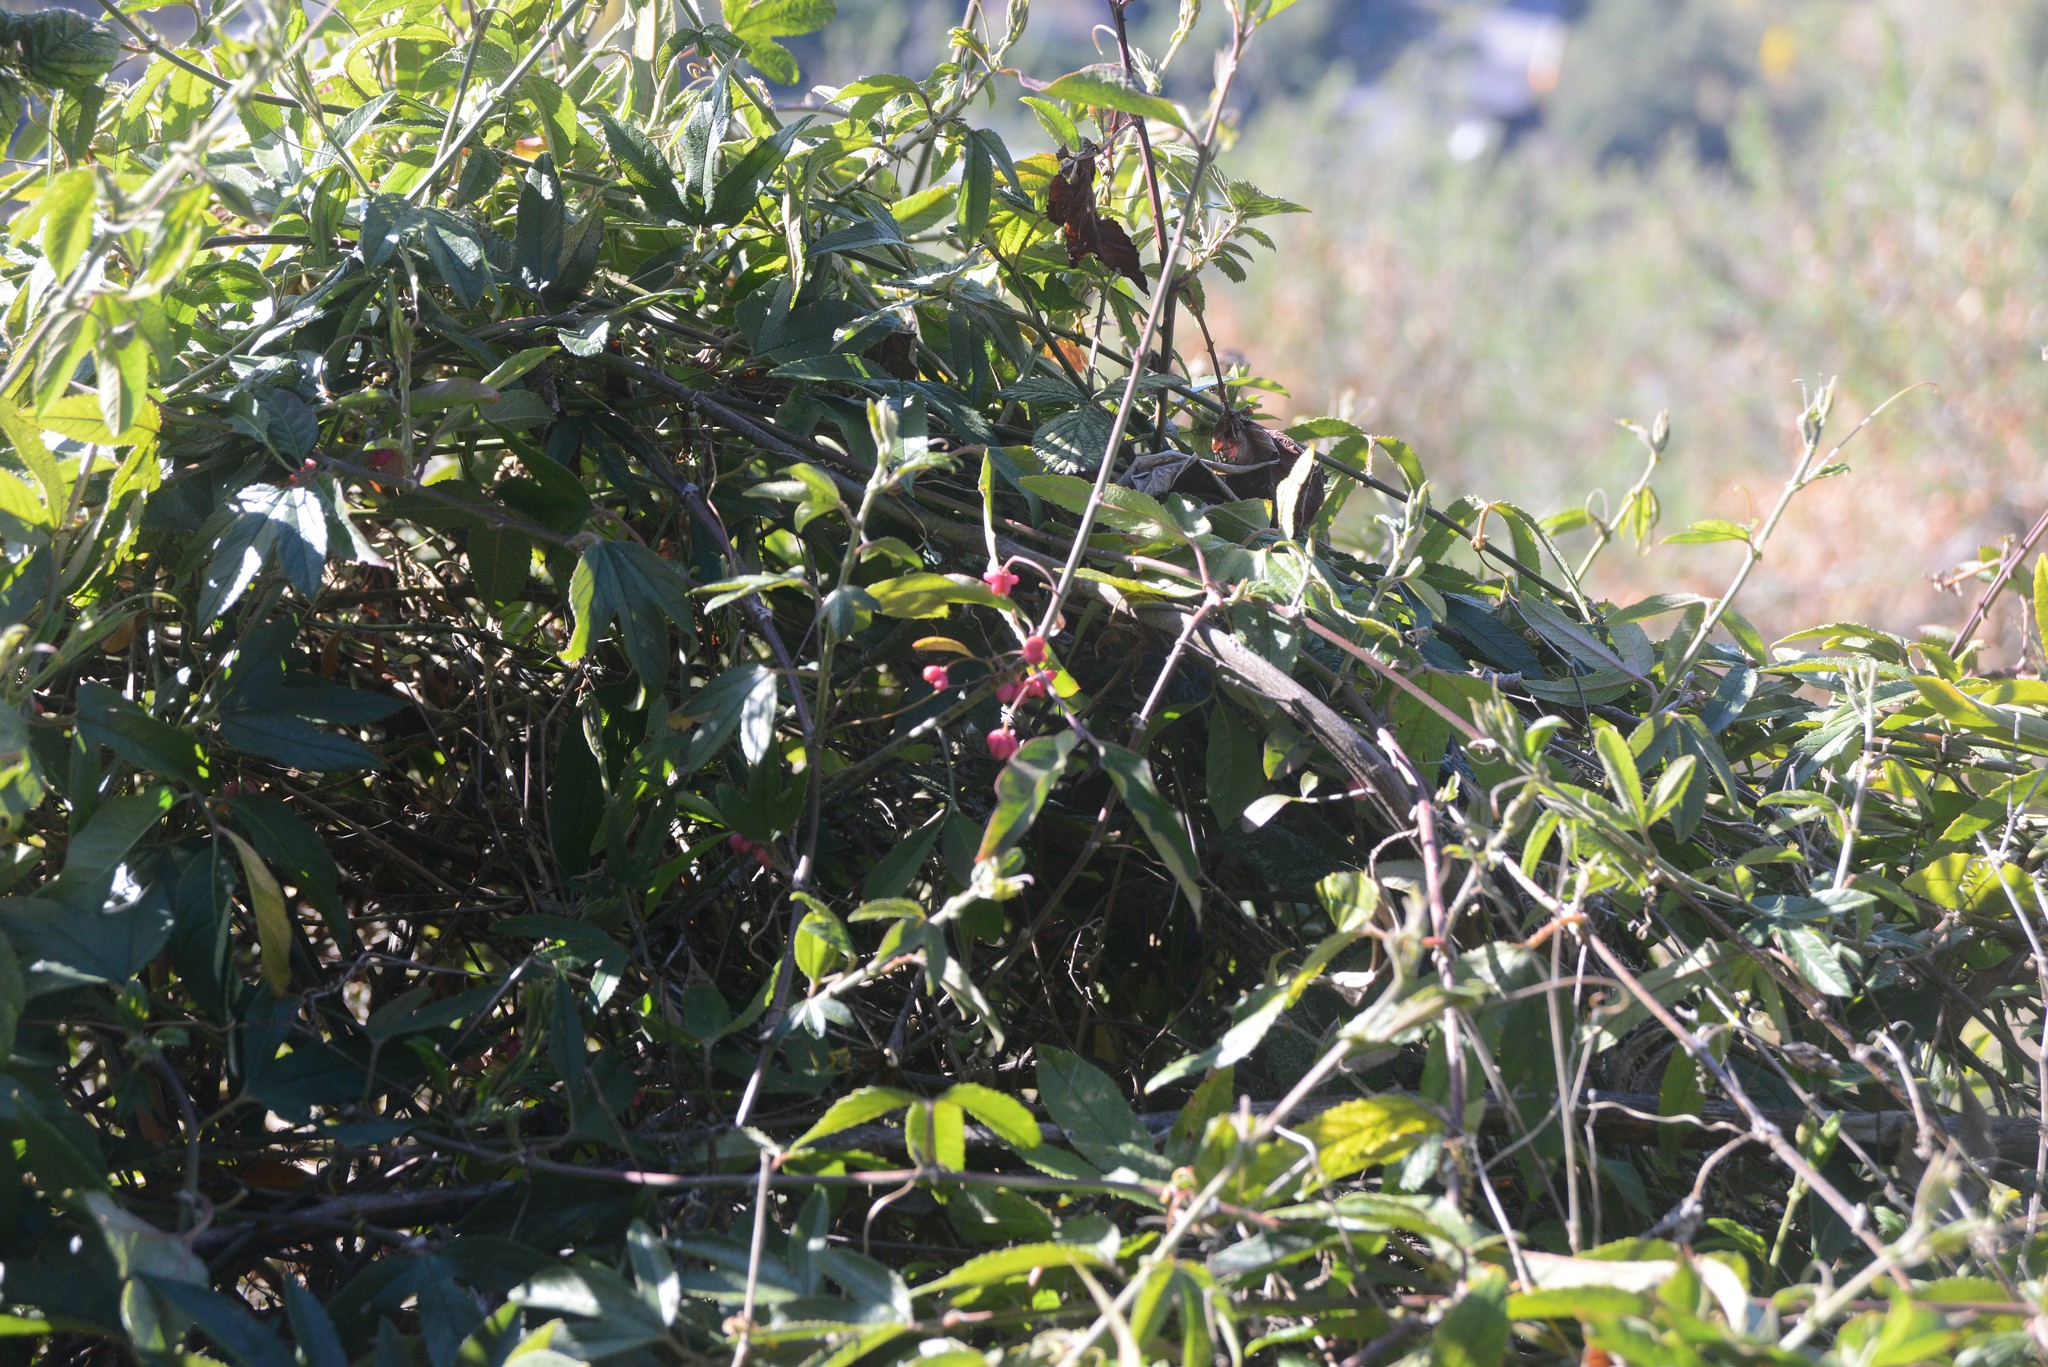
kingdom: Plantae
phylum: Tracheophyta
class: Magnoliopsida
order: Celastrales
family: Celastraceae
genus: Euonymus
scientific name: Euonymus europaeus
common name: Spindle
